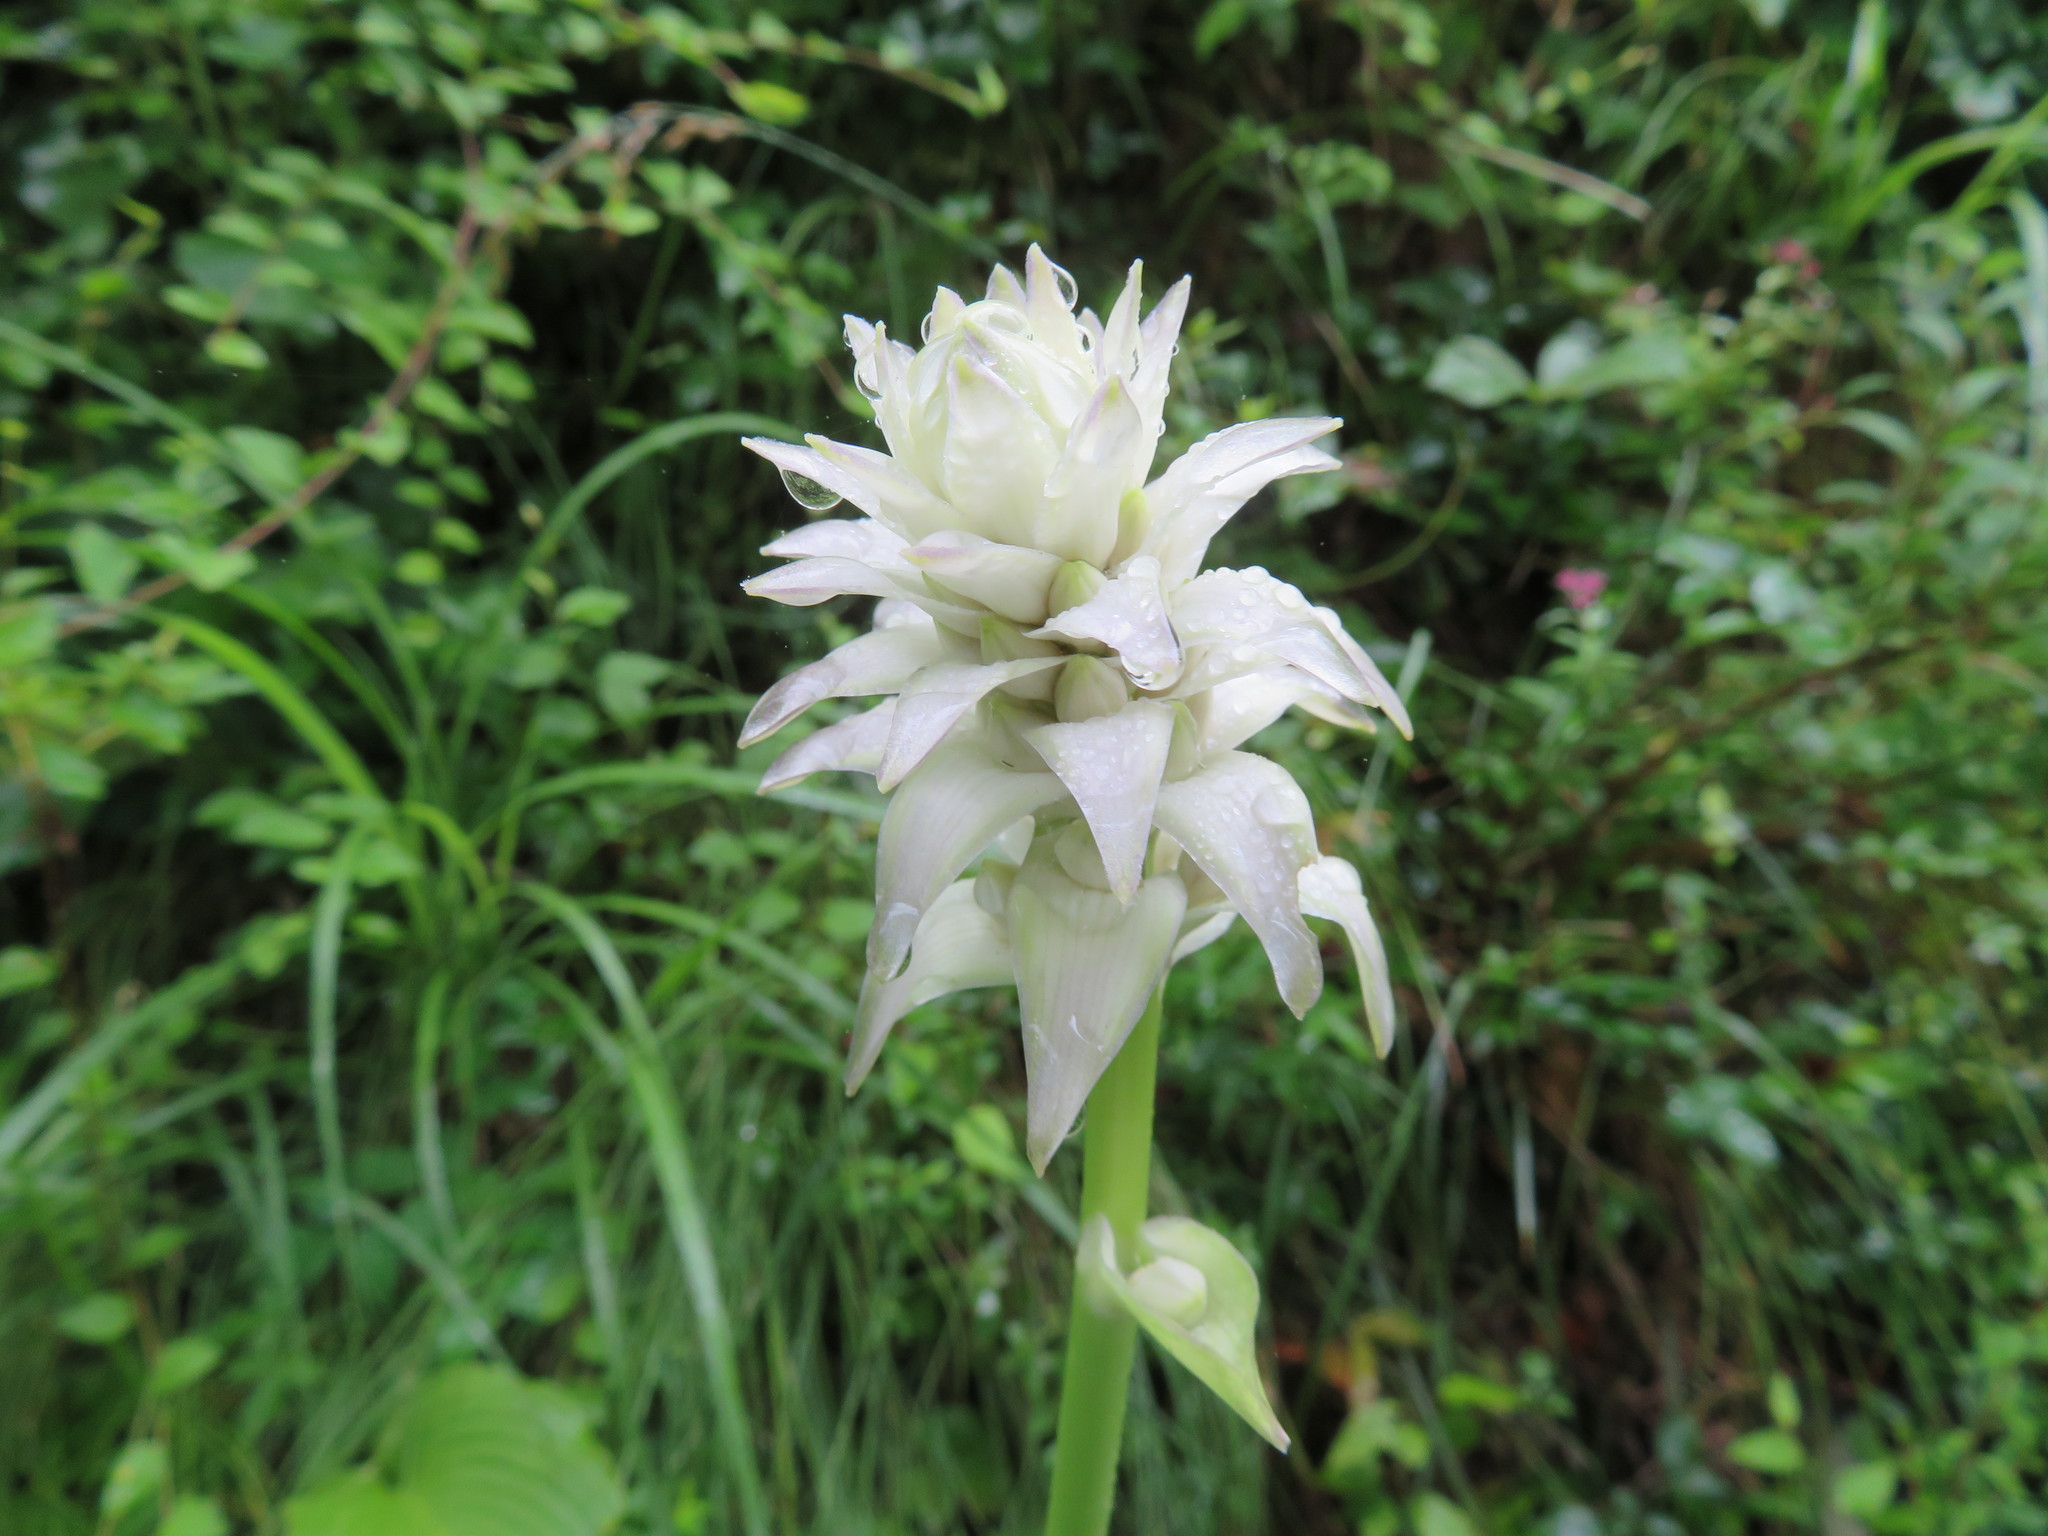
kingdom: Plantae
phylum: Tracheophyta
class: Liliopsida
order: Asparagales
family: Asparagaceae
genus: Hosta
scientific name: Hosta sieboldiana
